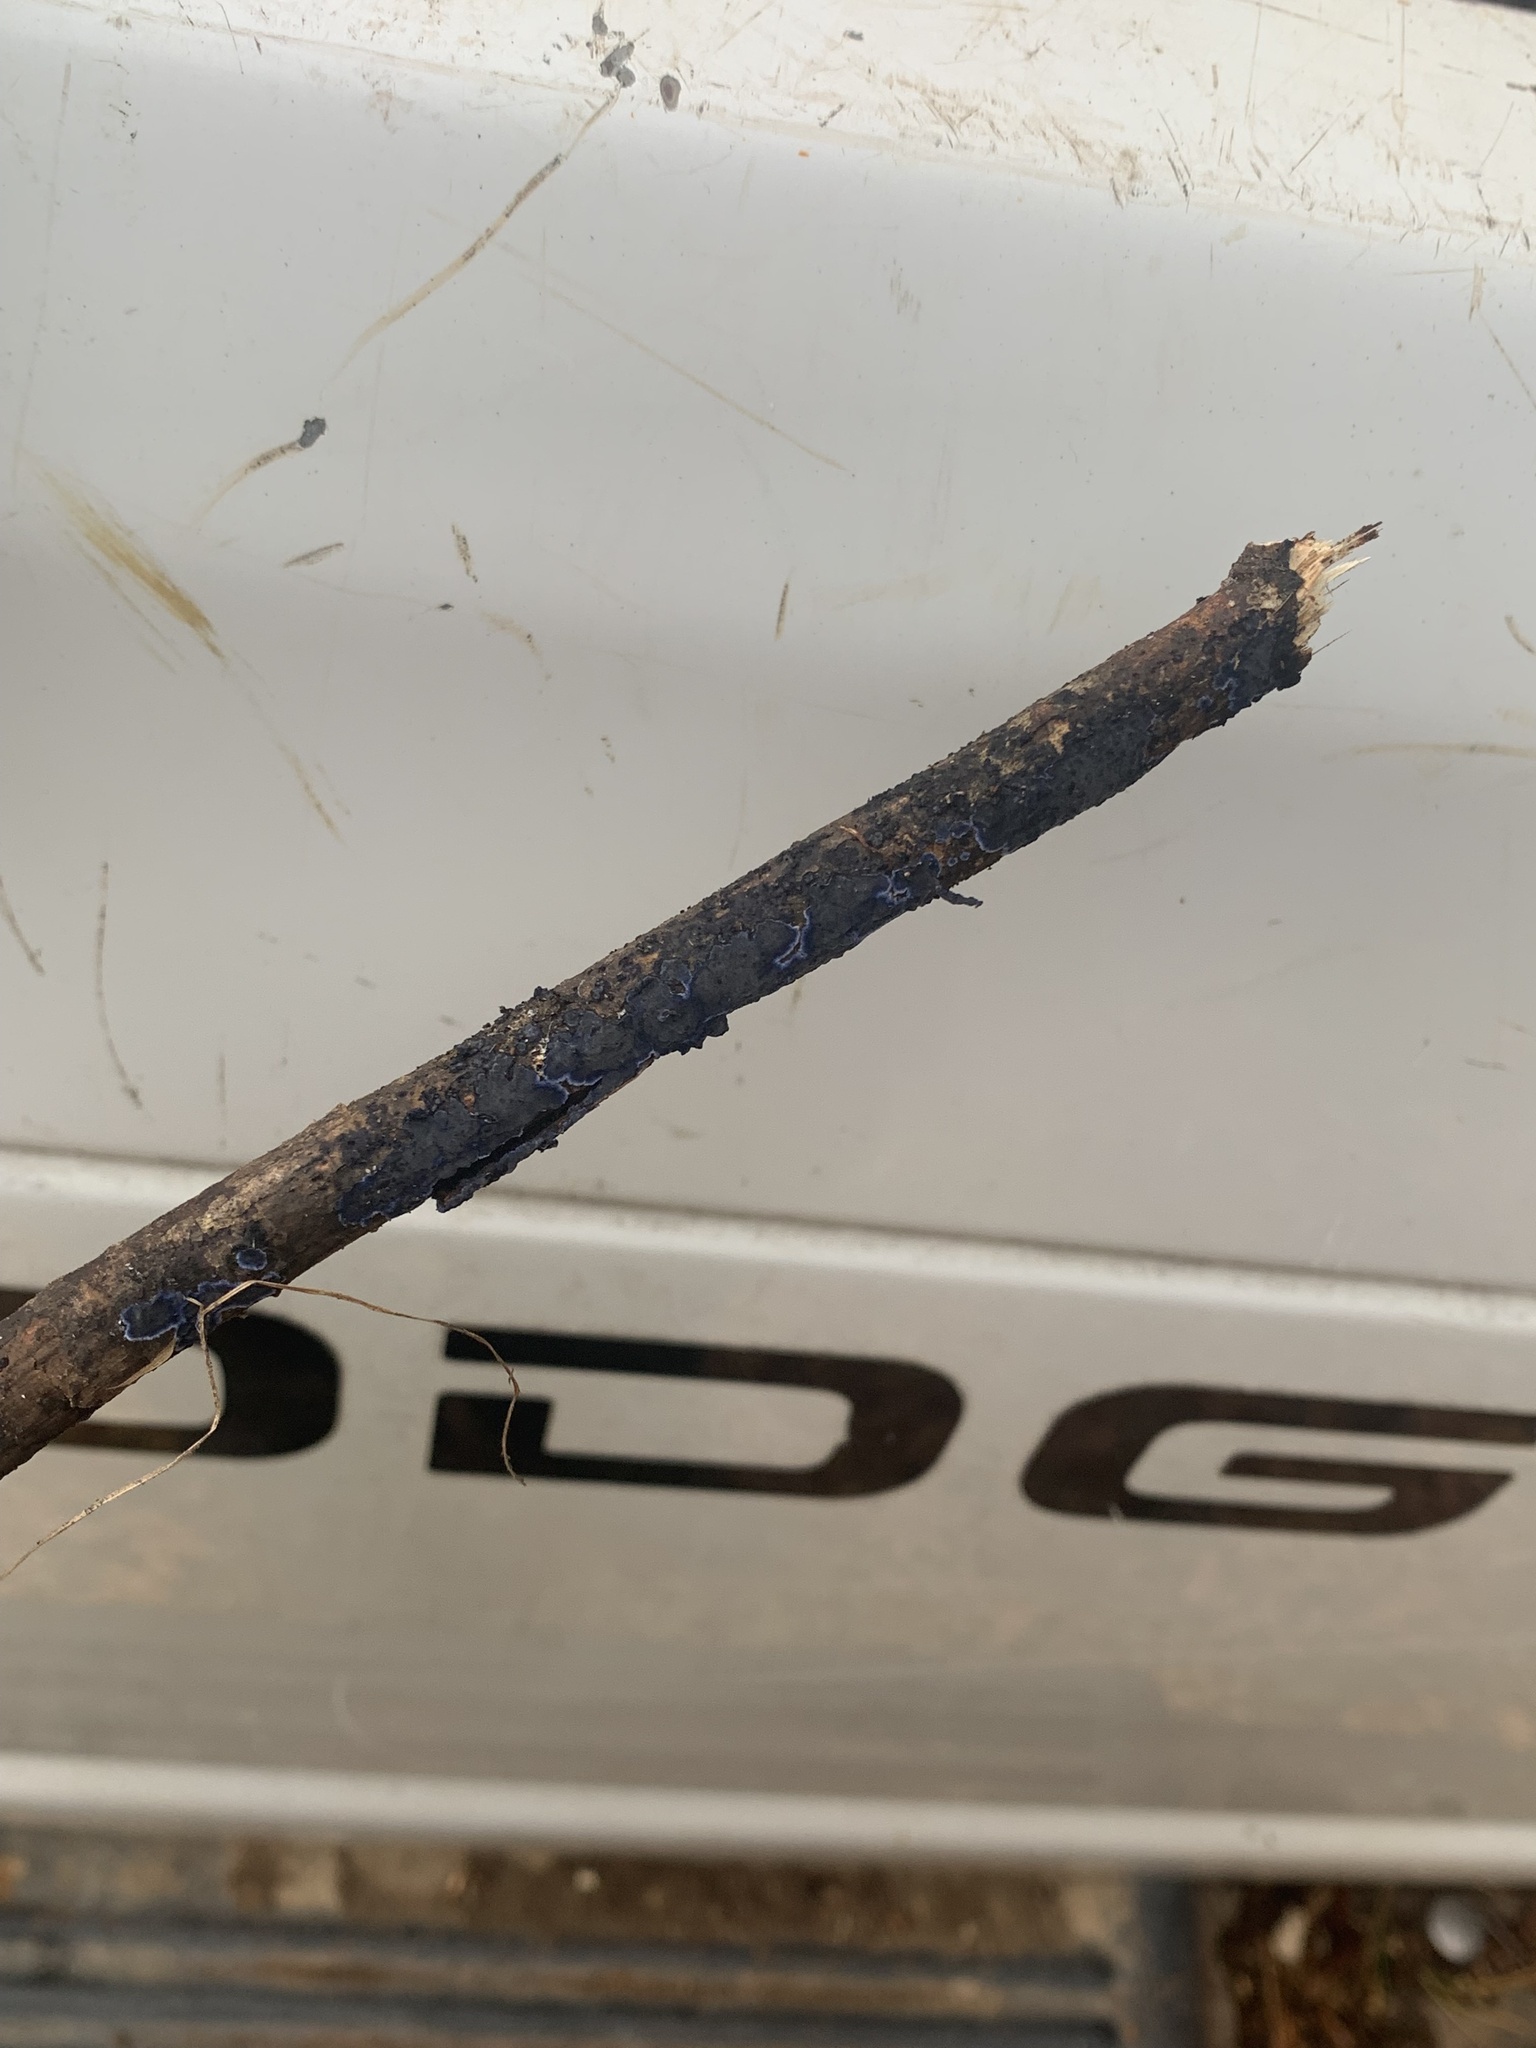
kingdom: Fungi
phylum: Basidiomycota
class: Agaricomycetes
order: Polyporales
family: Phanerochaetaceae
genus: Terana
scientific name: Terana coerulea
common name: Cobalt crust
